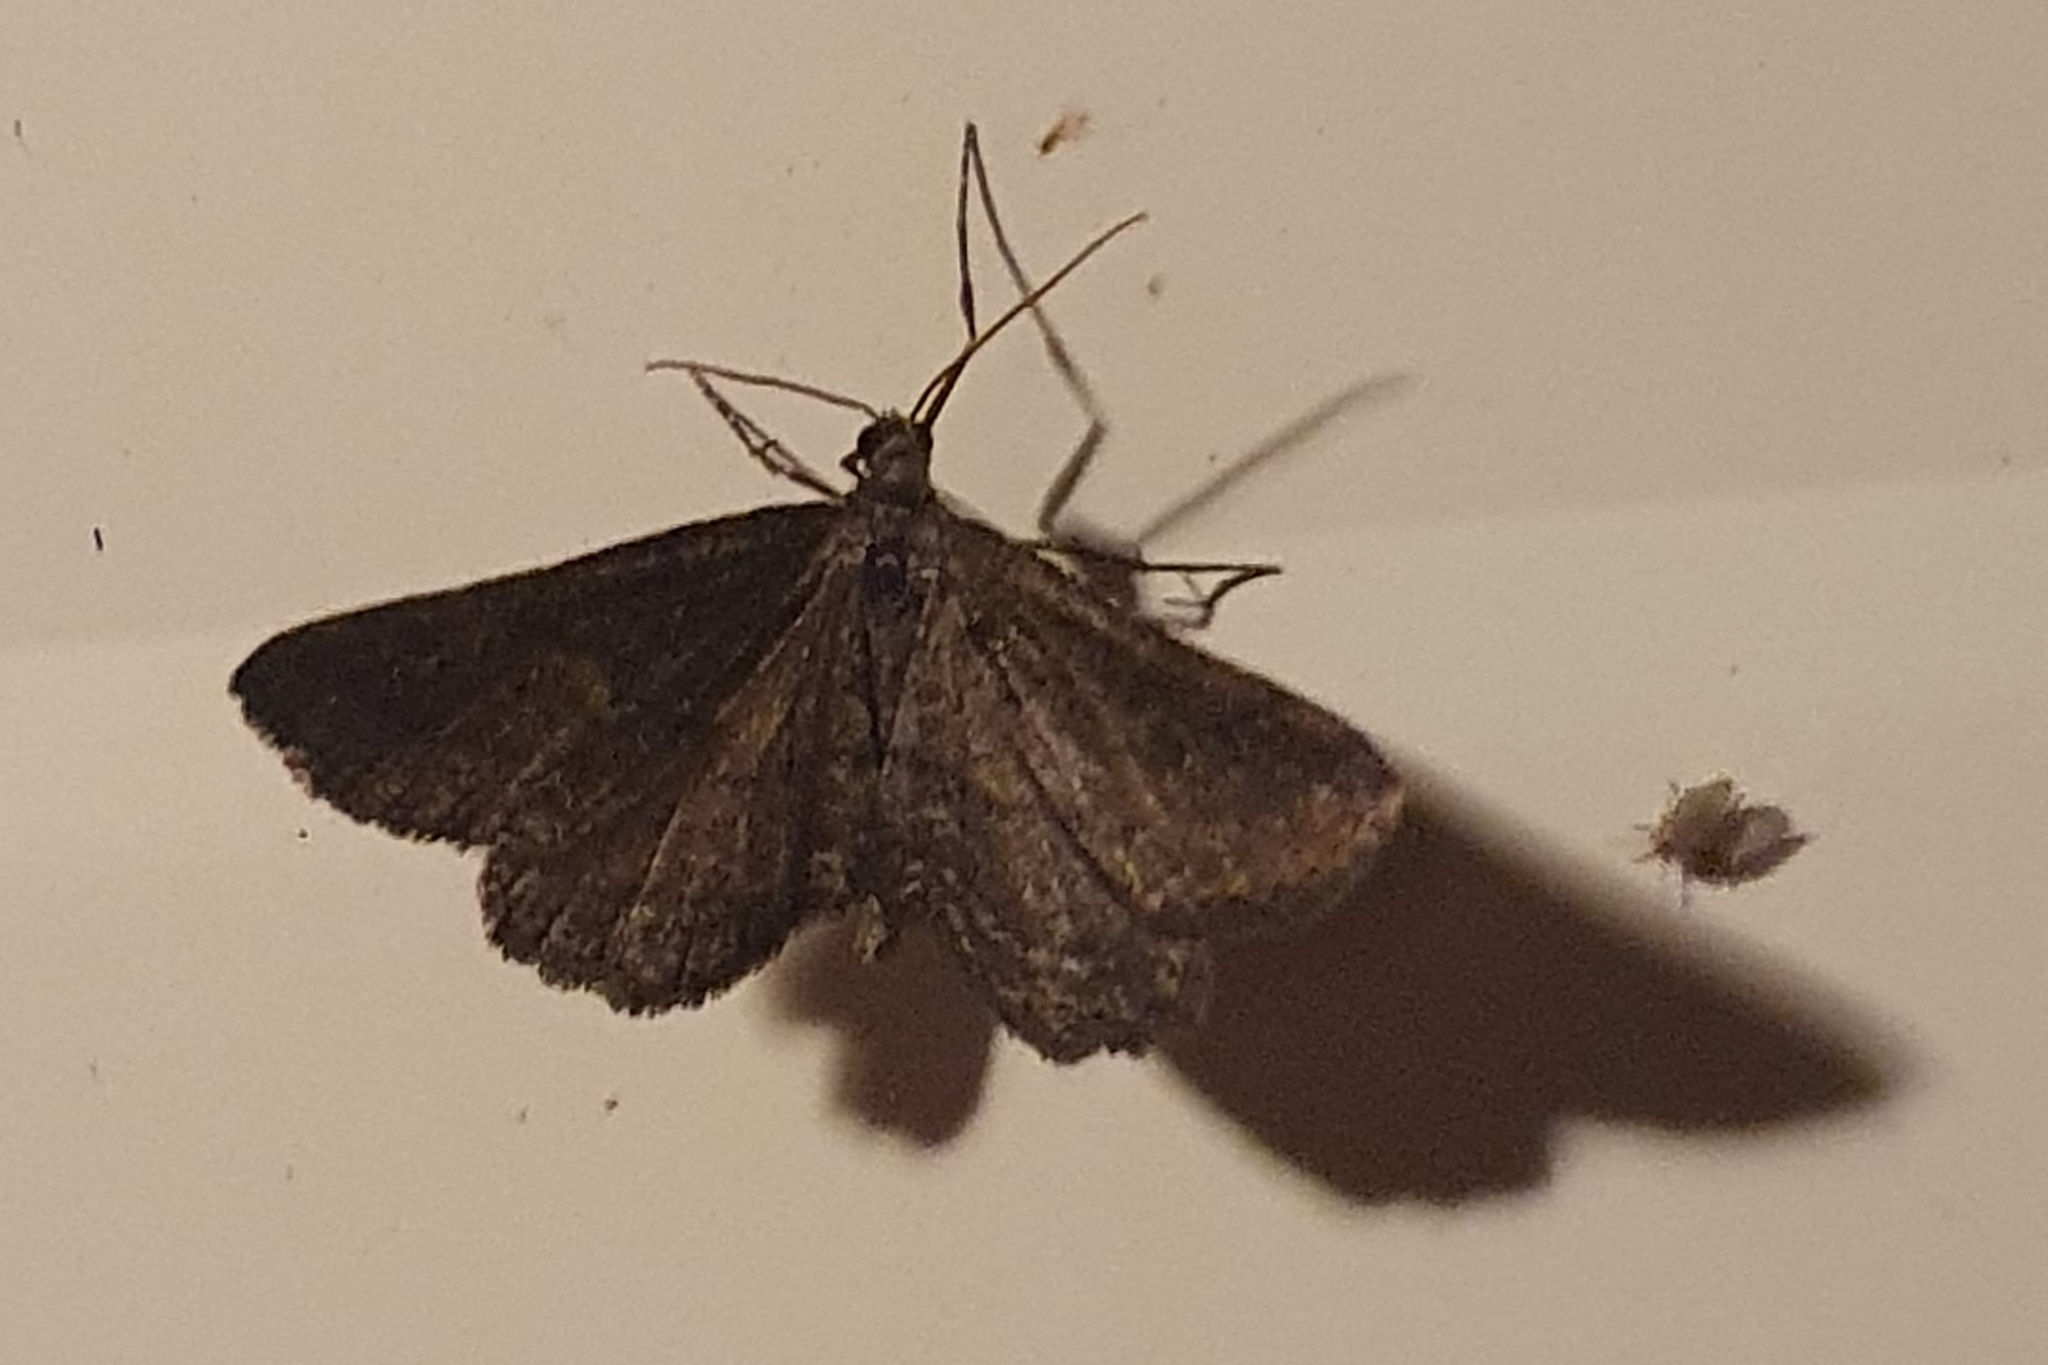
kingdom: Animalia
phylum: Arthropoda
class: Insecta
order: Lepidoptera
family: Geometridae
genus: Rhoptria
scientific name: Rhoptria asperaria
